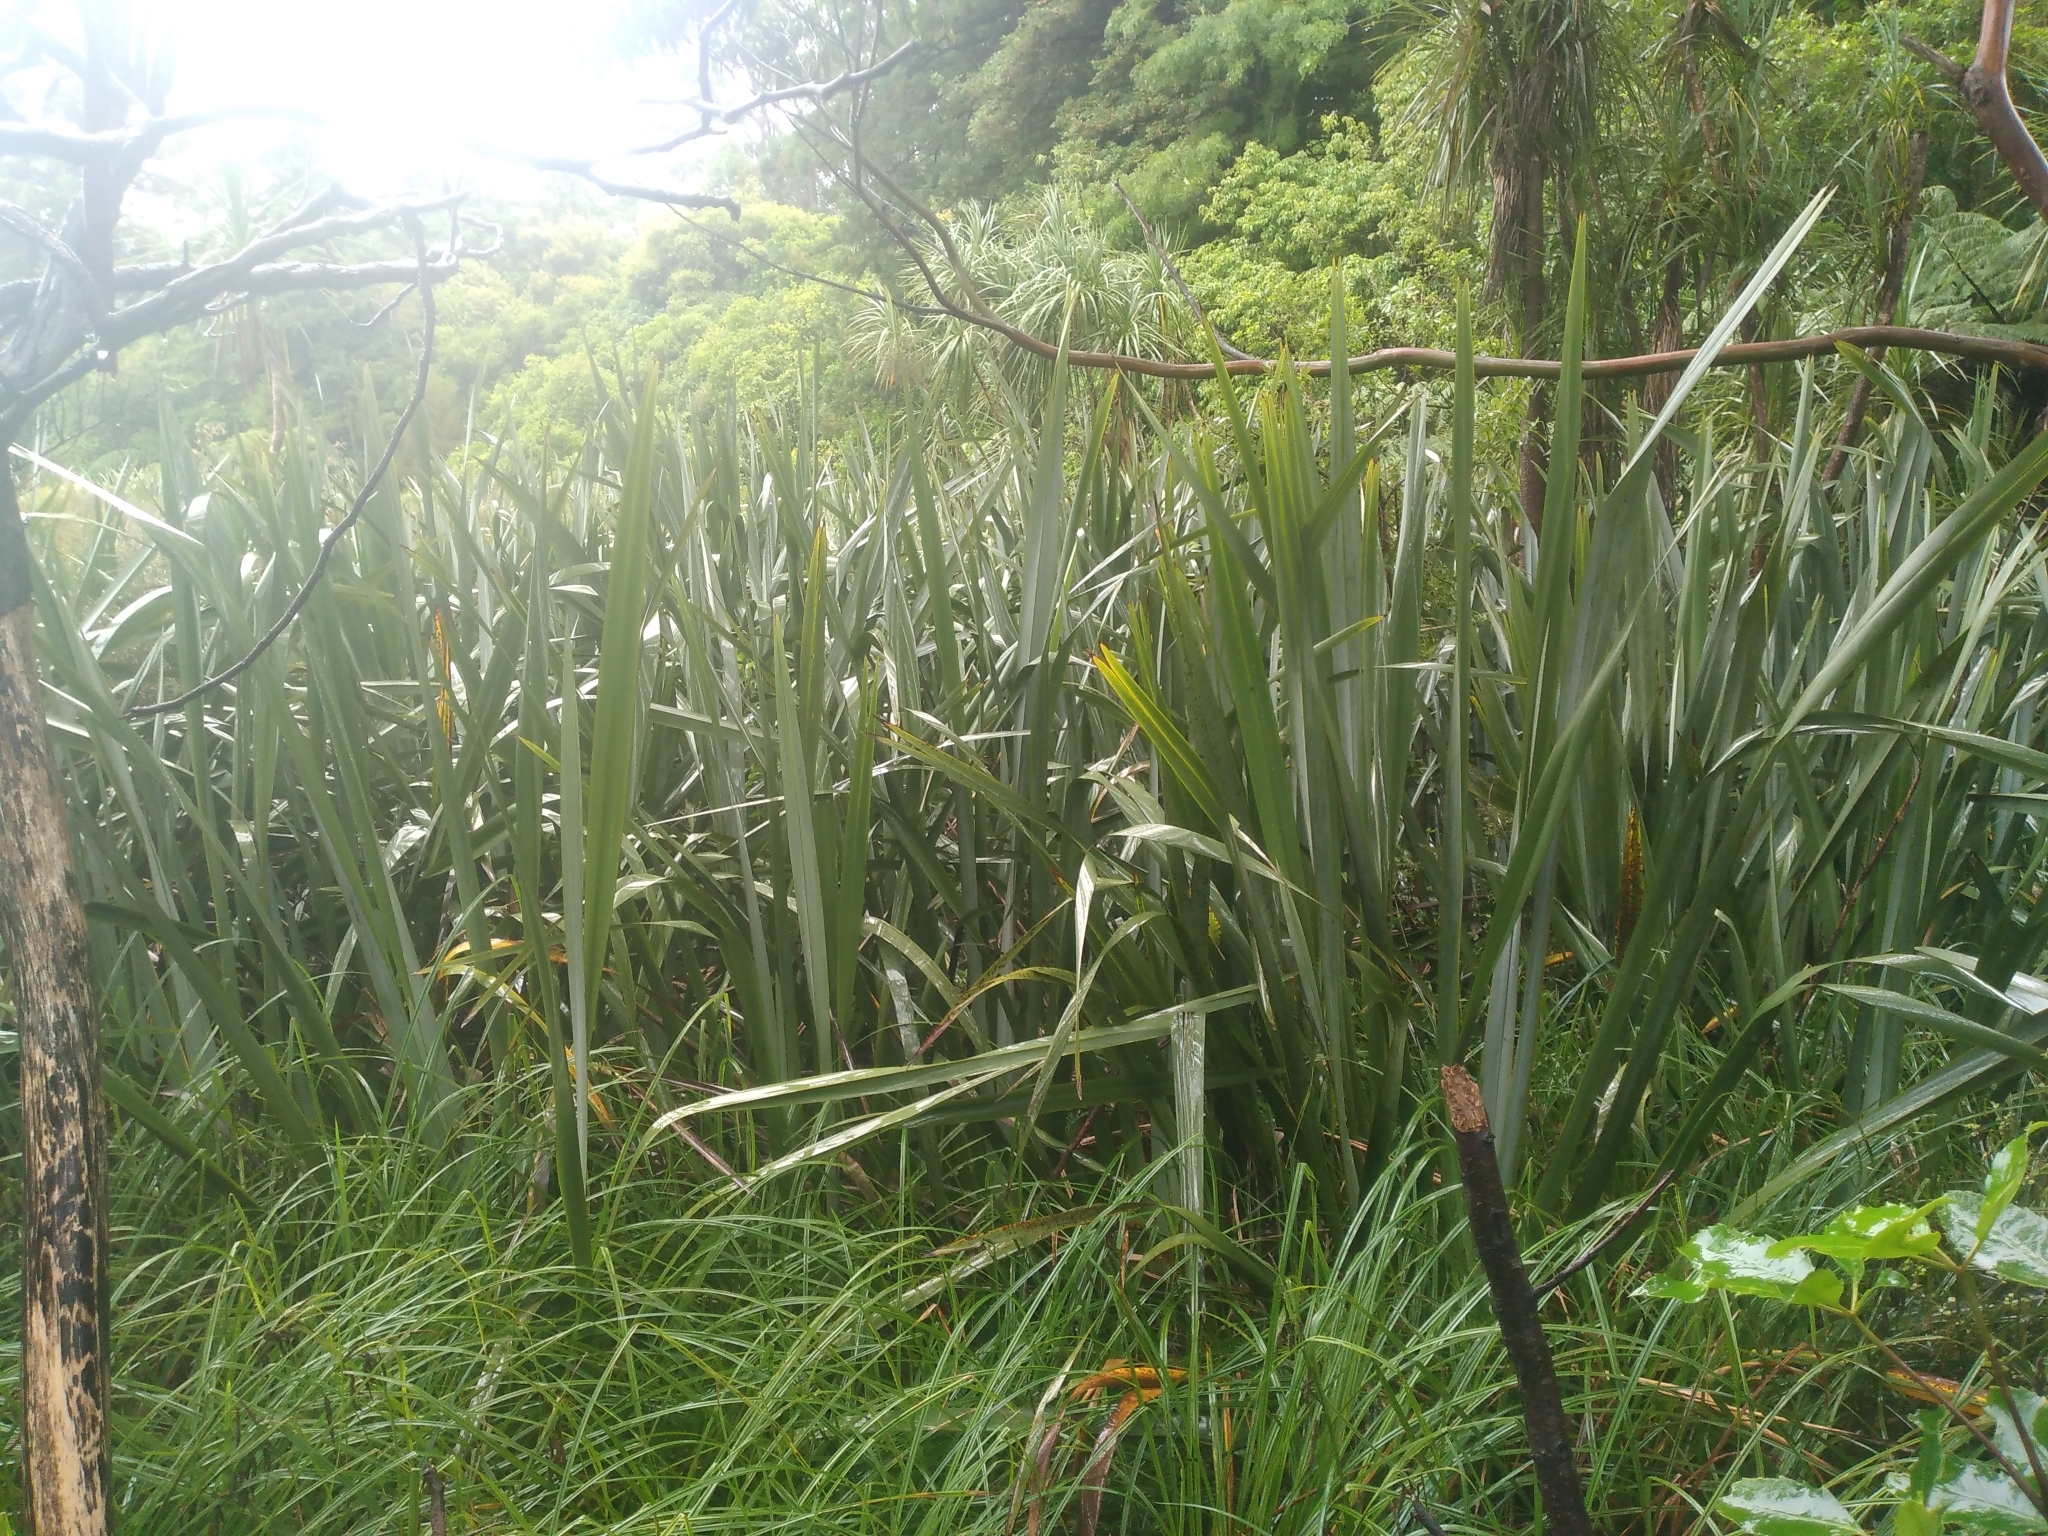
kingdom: Plantae
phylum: Tracheophyta
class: Liliopsida
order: Asparagales
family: Asphodelaceae
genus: Phormium
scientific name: Phormium tenax
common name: New zealand flax
